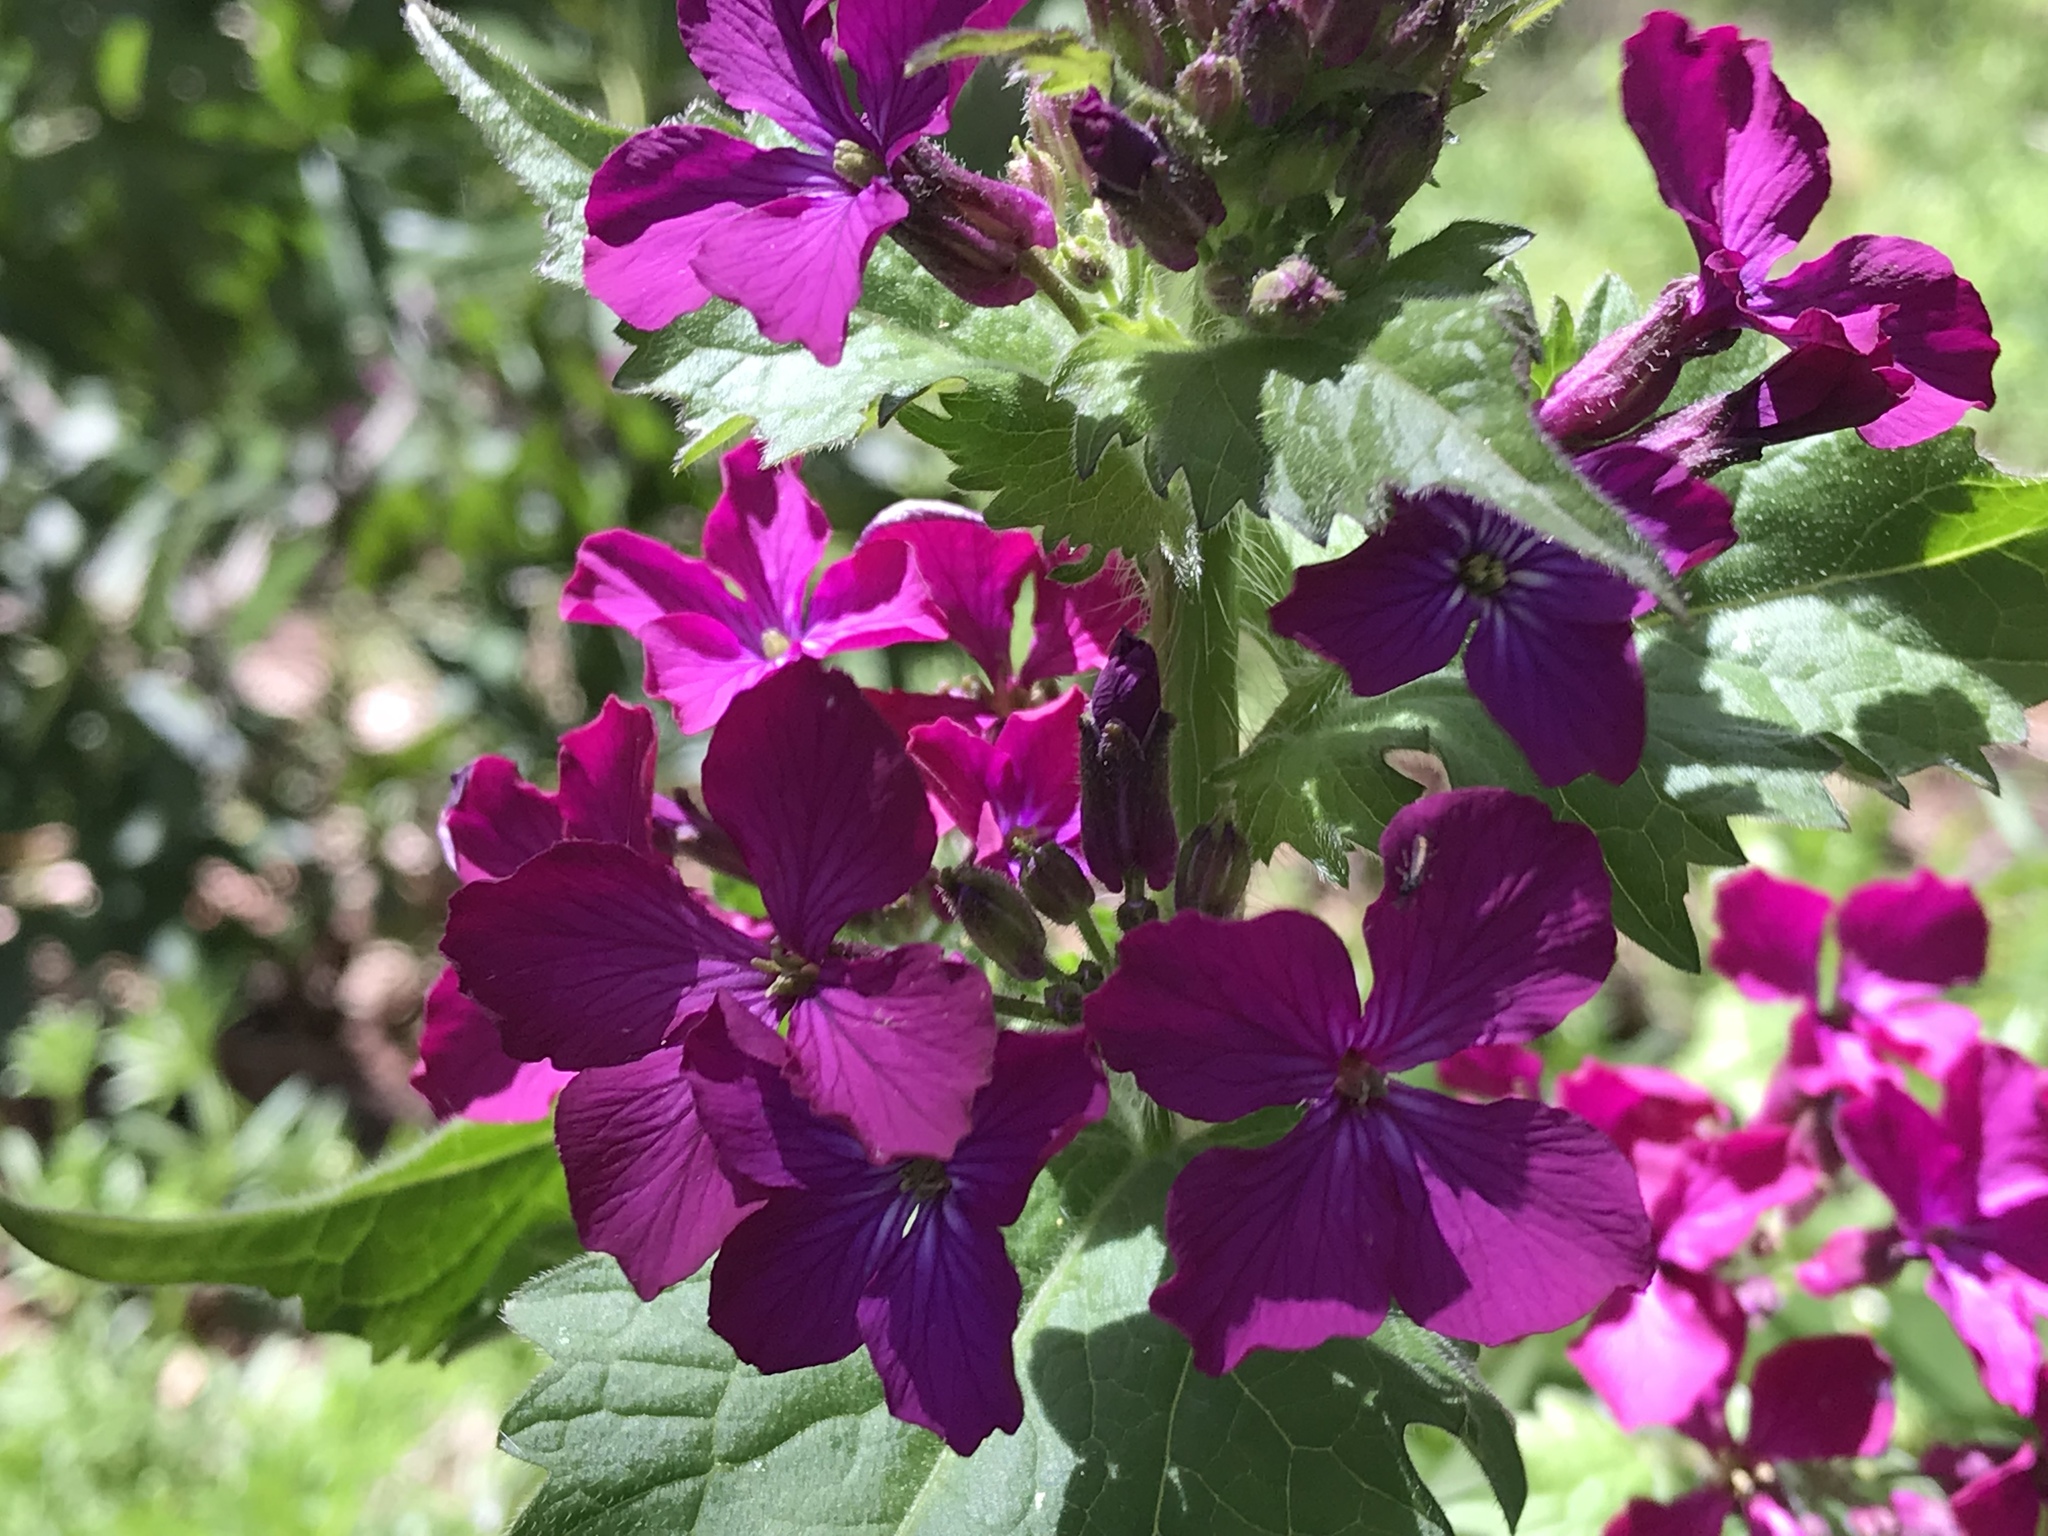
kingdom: Plantae
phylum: Tracheophyta
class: Magnoliopsida
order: Brassicales
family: Brassicaceae
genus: Lunaria
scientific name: Lunaria annua
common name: Honesty
